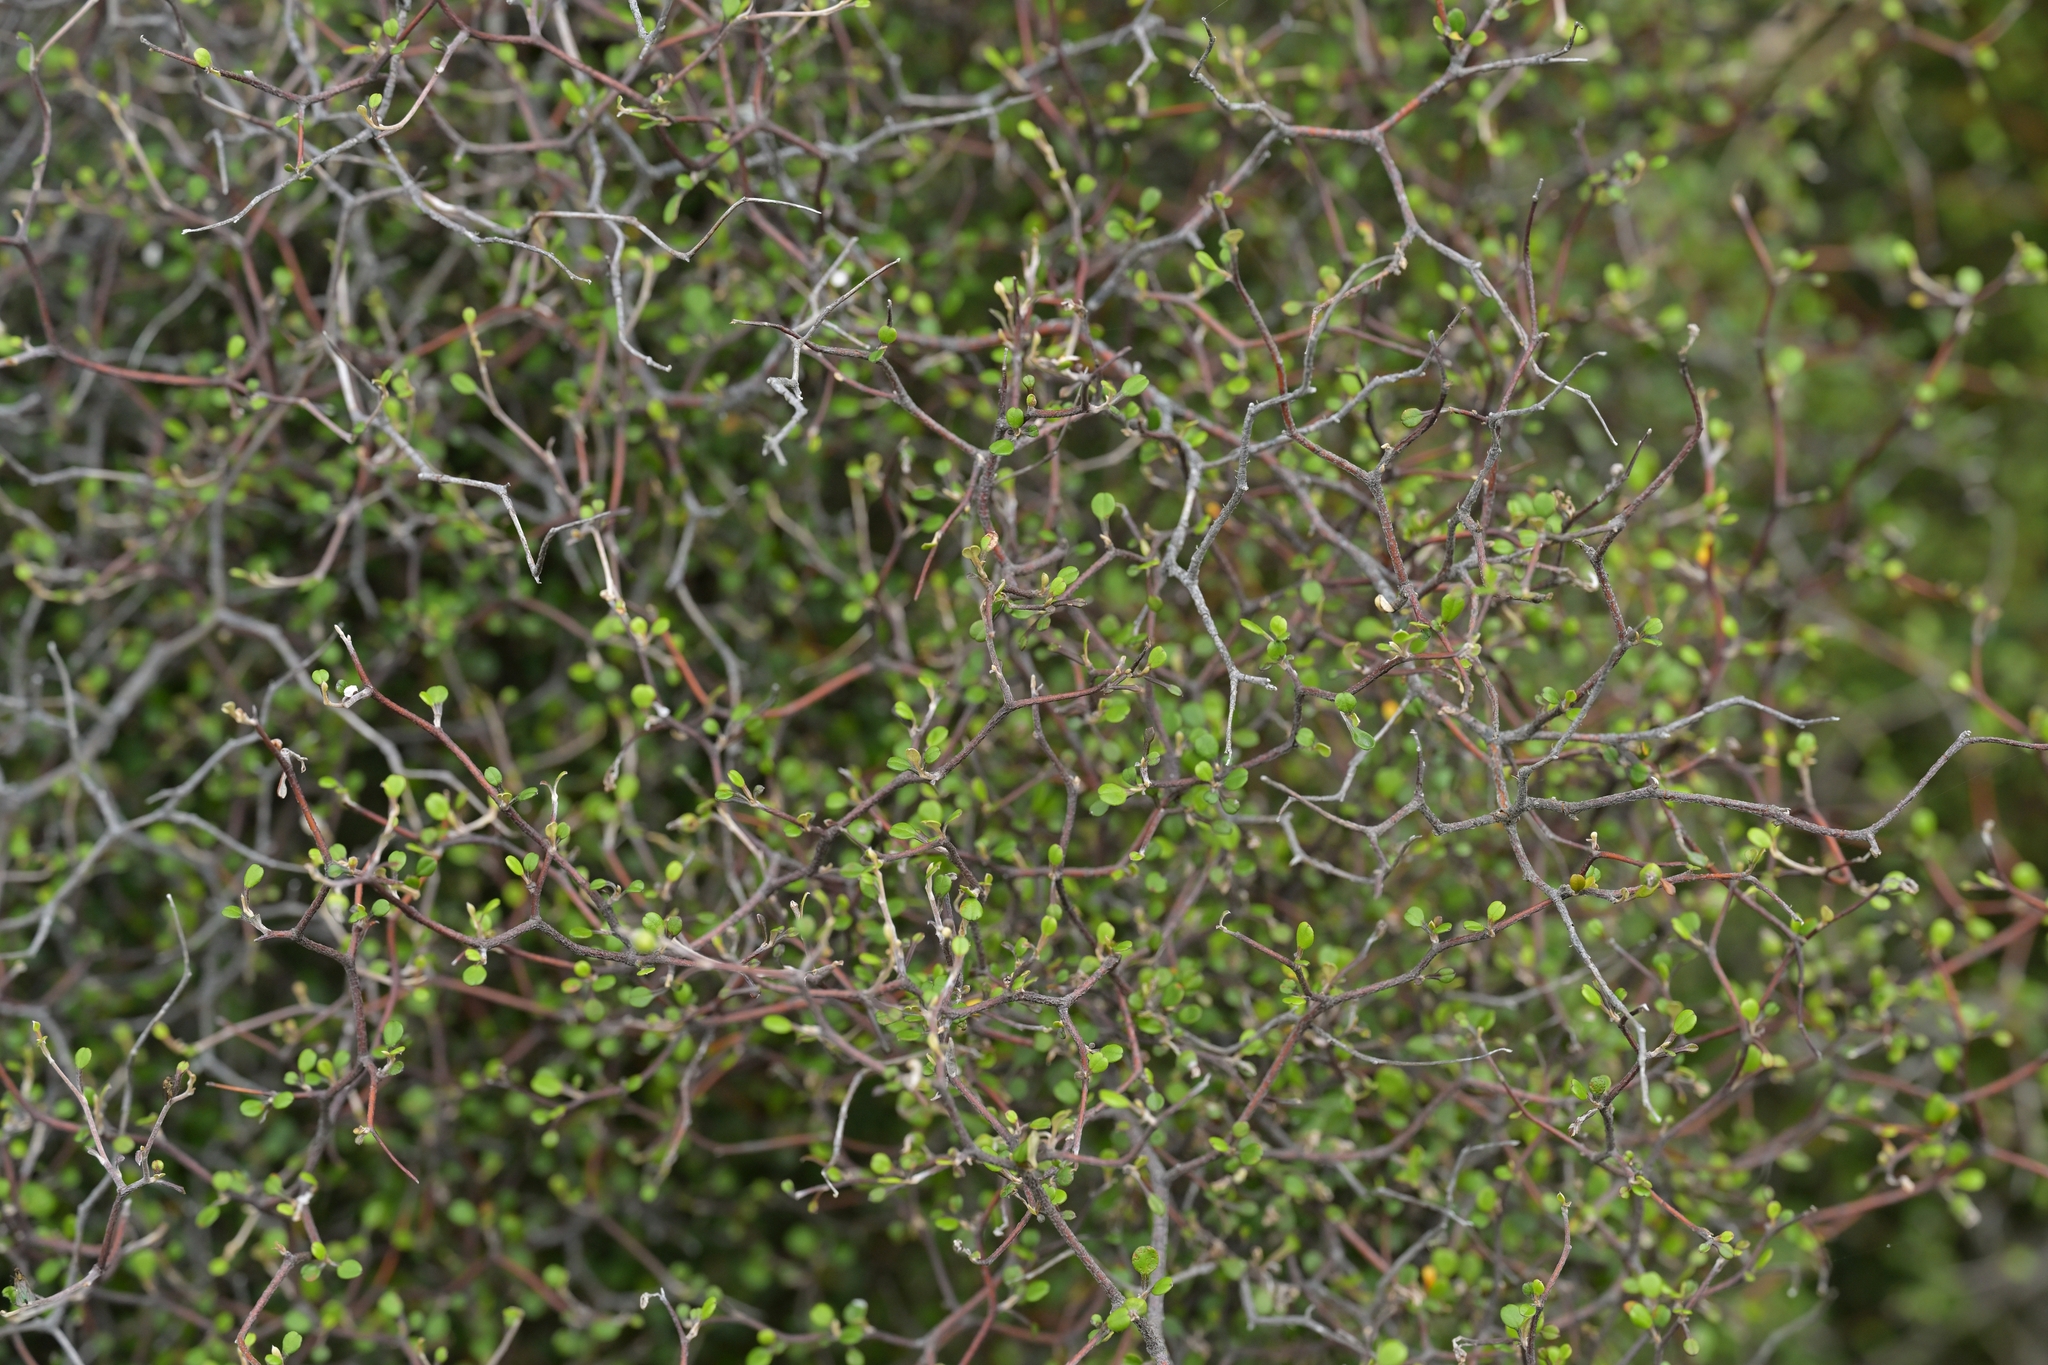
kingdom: Plantae
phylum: Tracheophyta
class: Magnoliopsida
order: Asterales
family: Argophyllaceae
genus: Corokia
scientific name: Corokia cotoneaster
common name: Wire nettingbush
